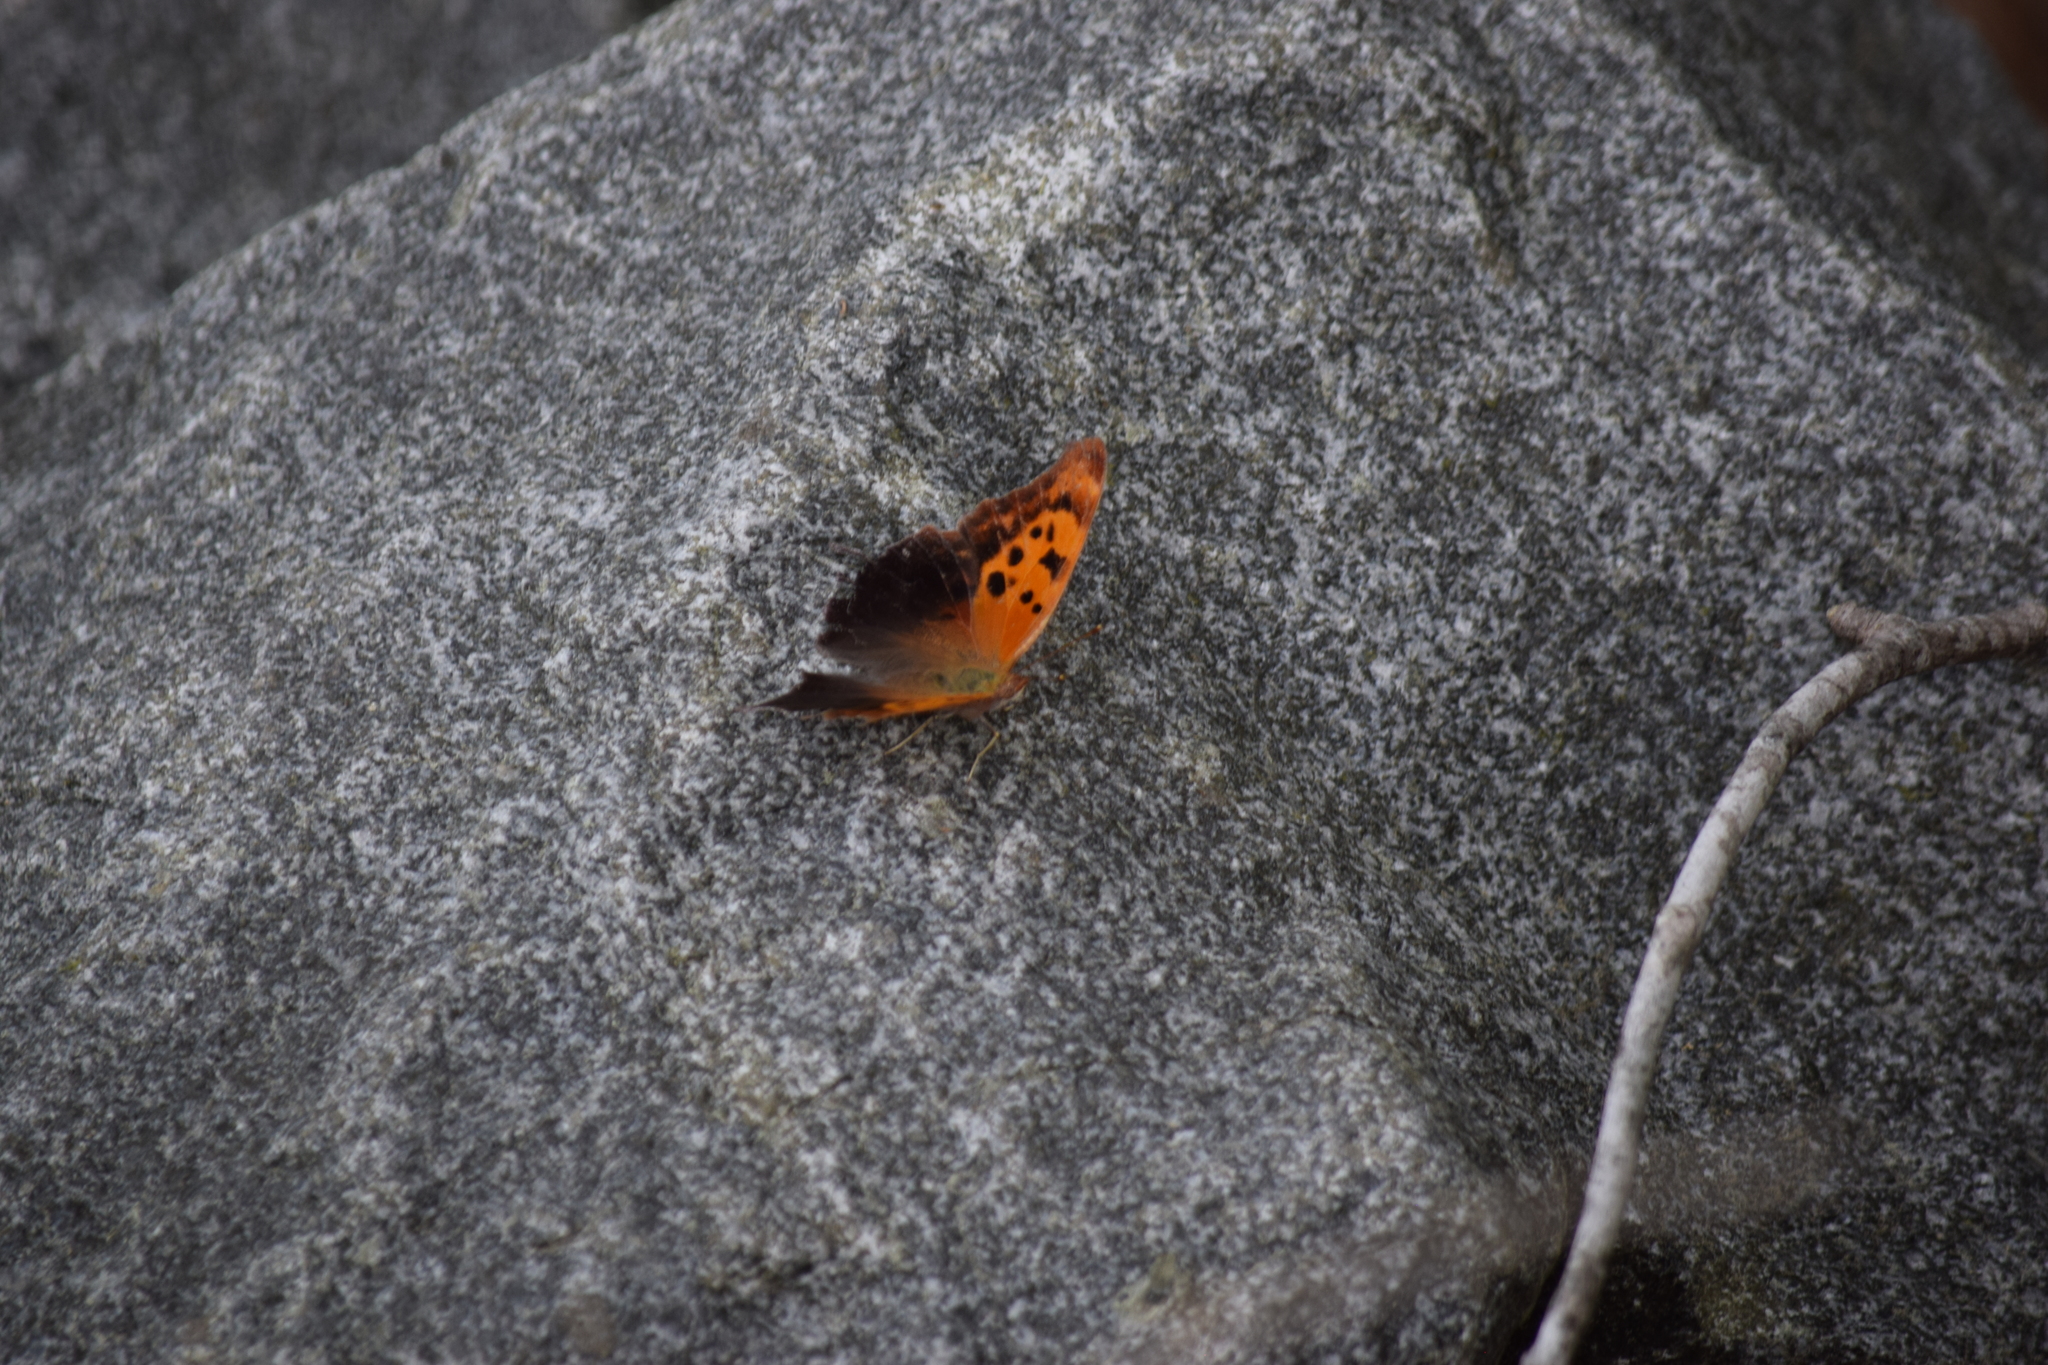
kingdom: Animalia
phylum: Arthropoda
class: Insecta
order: Lepidoptera
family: Nymphalidae
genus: Polygonia
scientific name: Polygonia interrogationis
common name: Question mark
